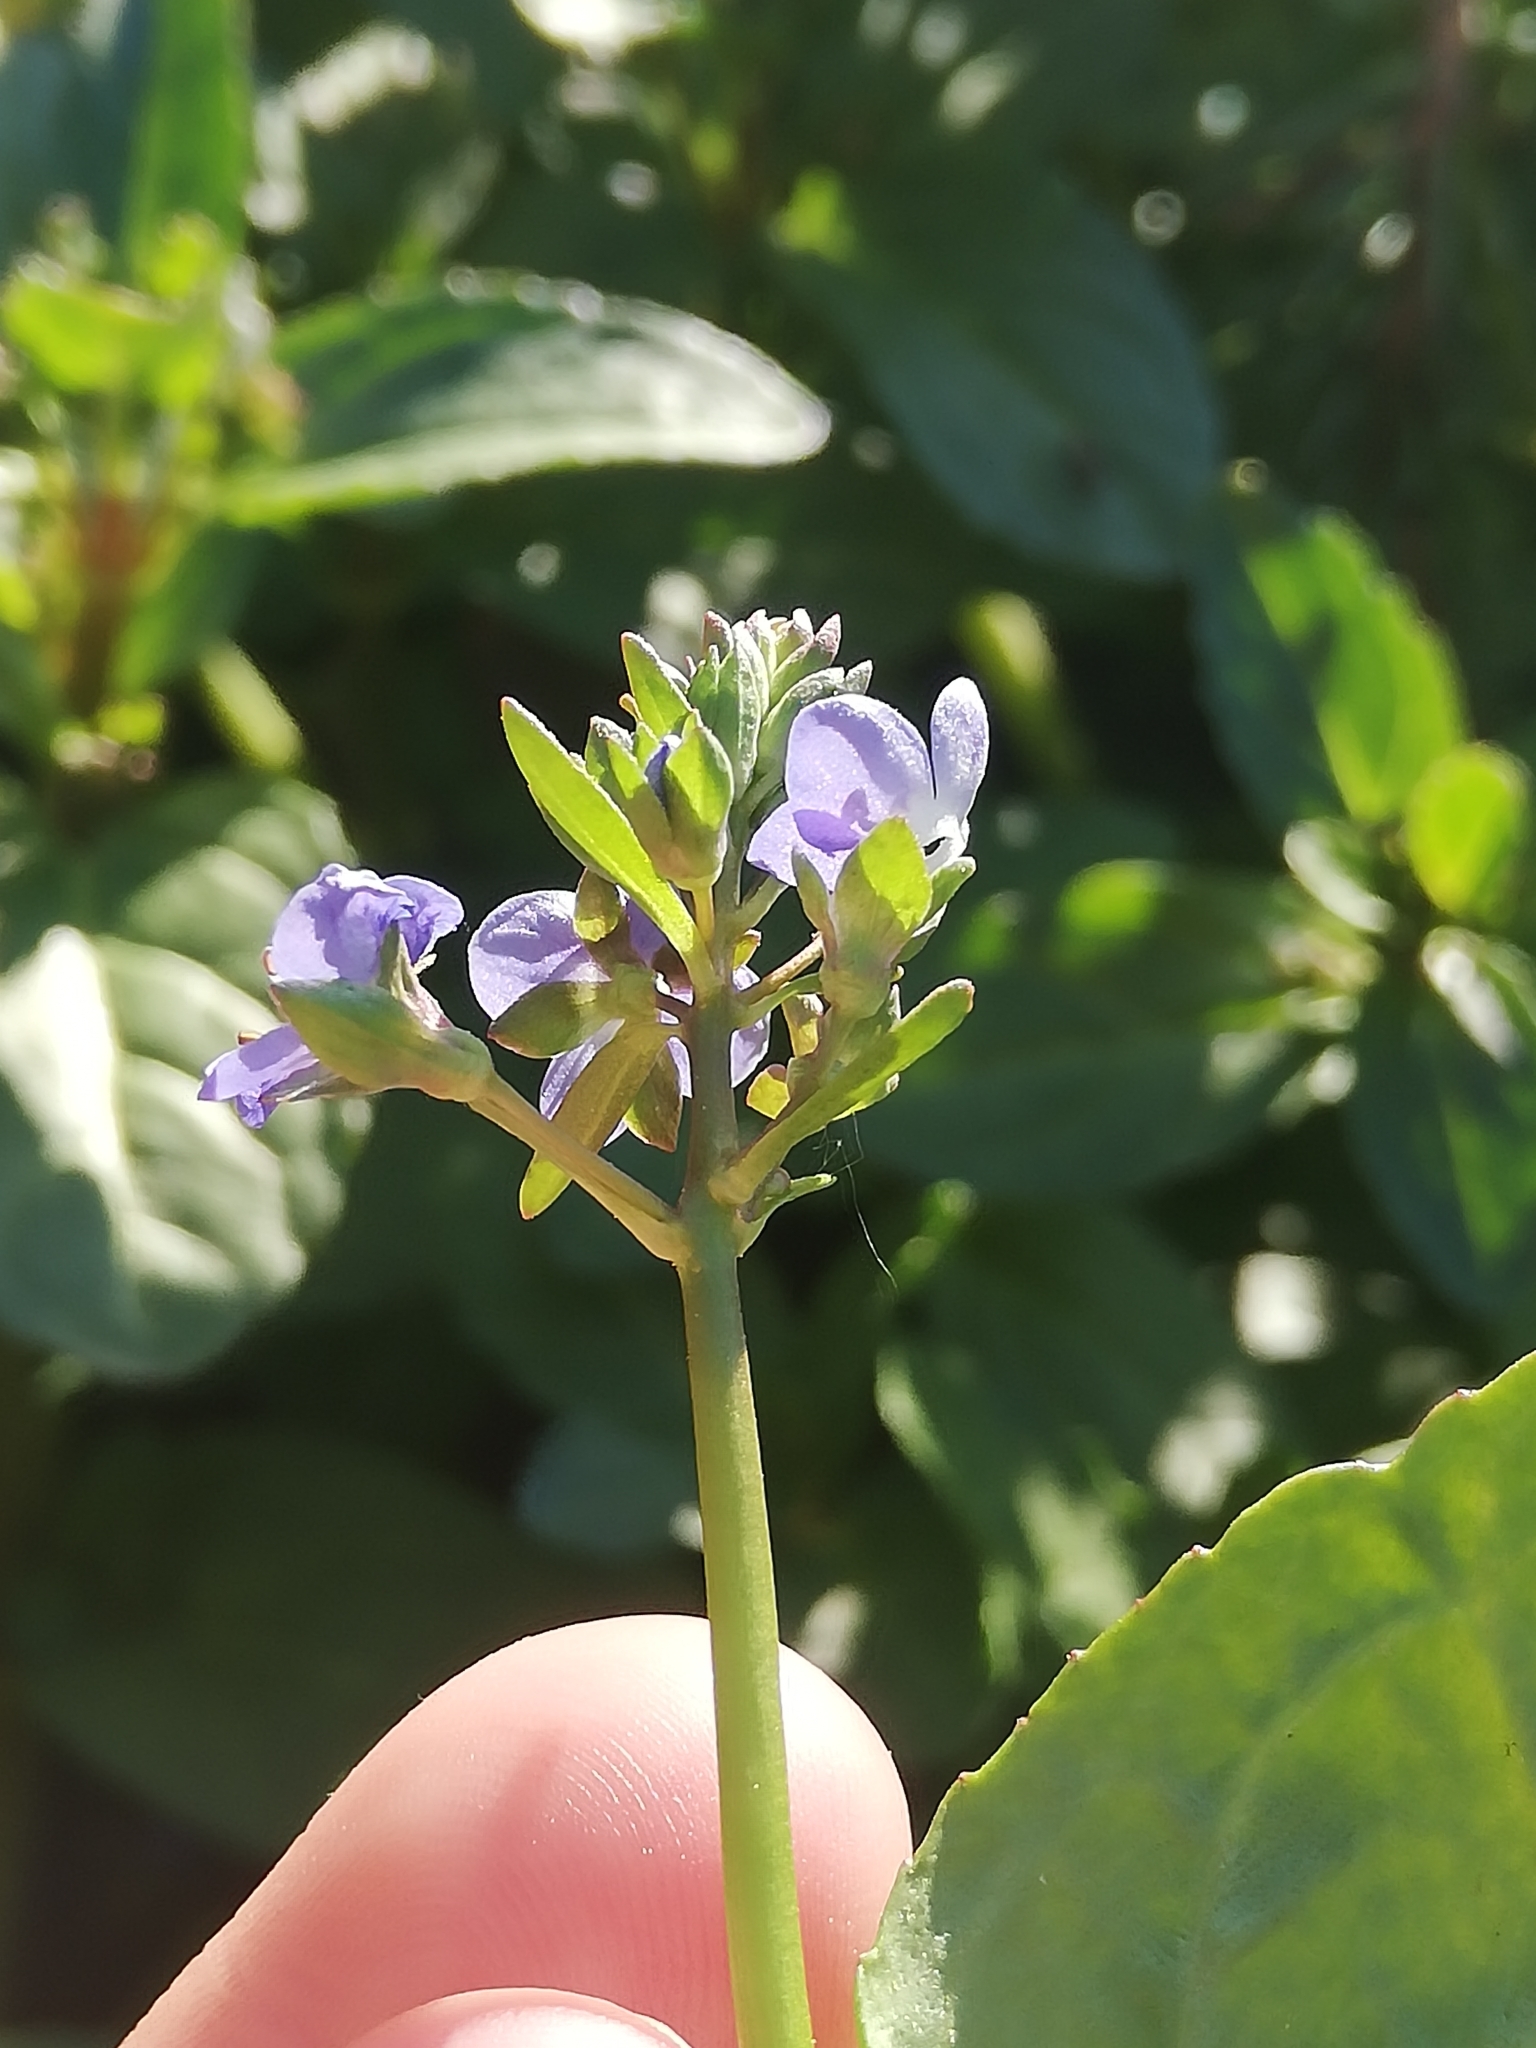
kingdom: Plantae
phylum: Tracheophyta
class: Magnoliopsida
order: Lamiales
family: Plantaginaceae
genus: Veronica
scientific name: Veronica beccabunga
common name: Brooklime
